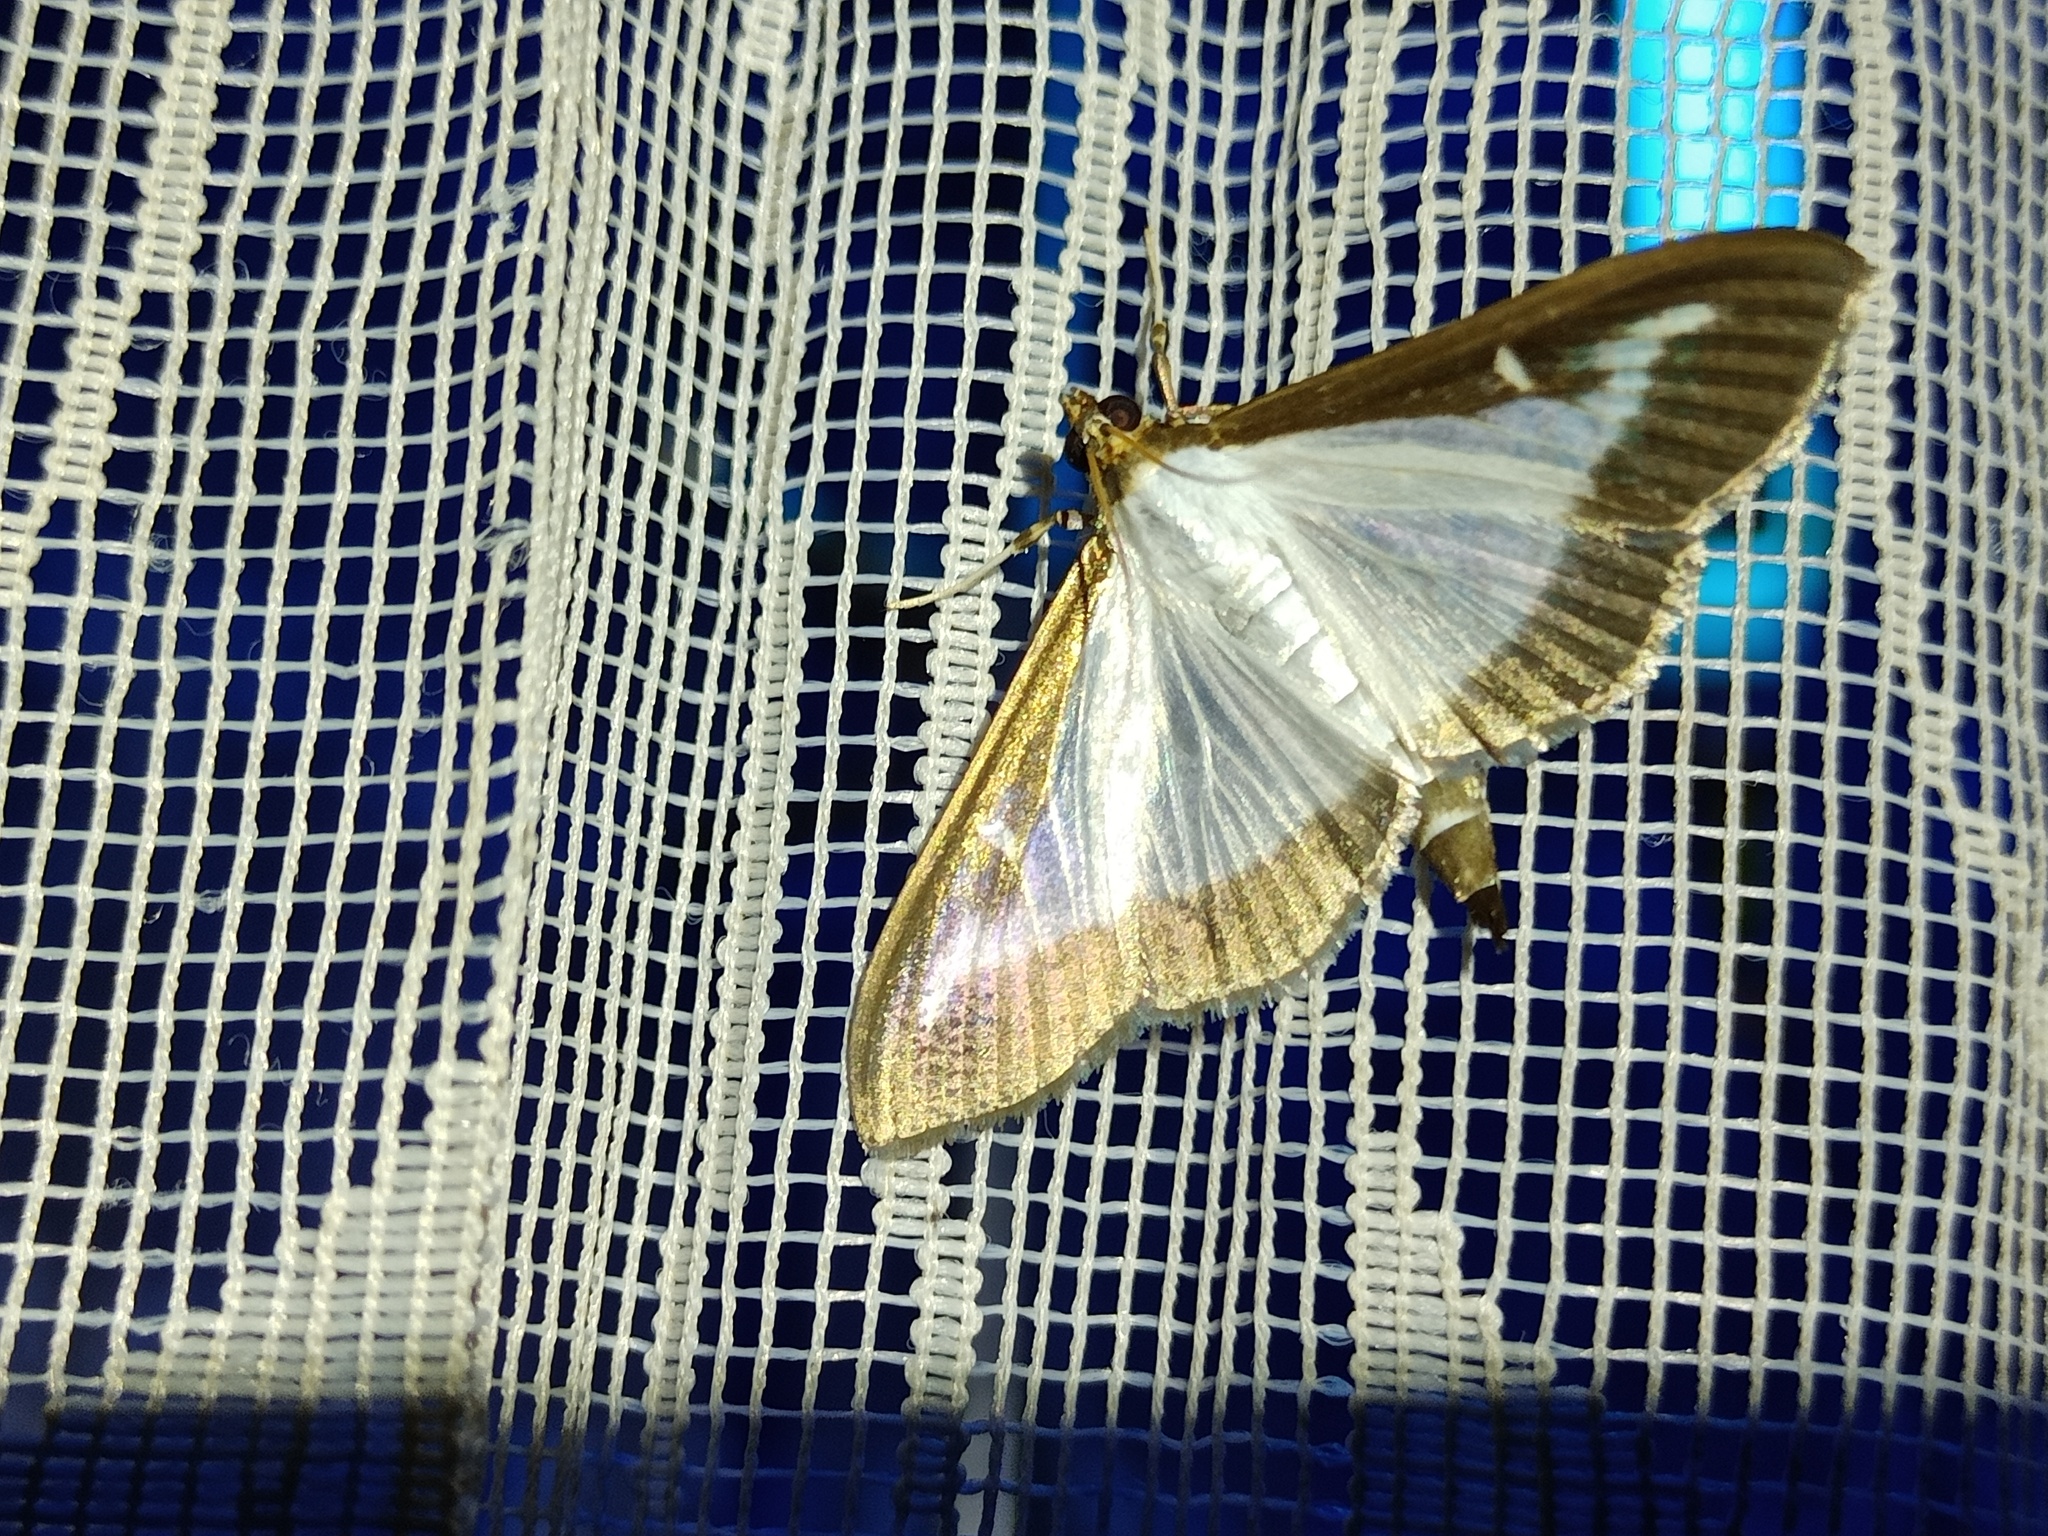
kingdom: Animalia
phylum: Arthropoda
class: Insecta
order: Lepidoptera
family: Crambidae
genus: Cydalima
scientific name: Cydalima perspectalis
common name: Box tree moth
